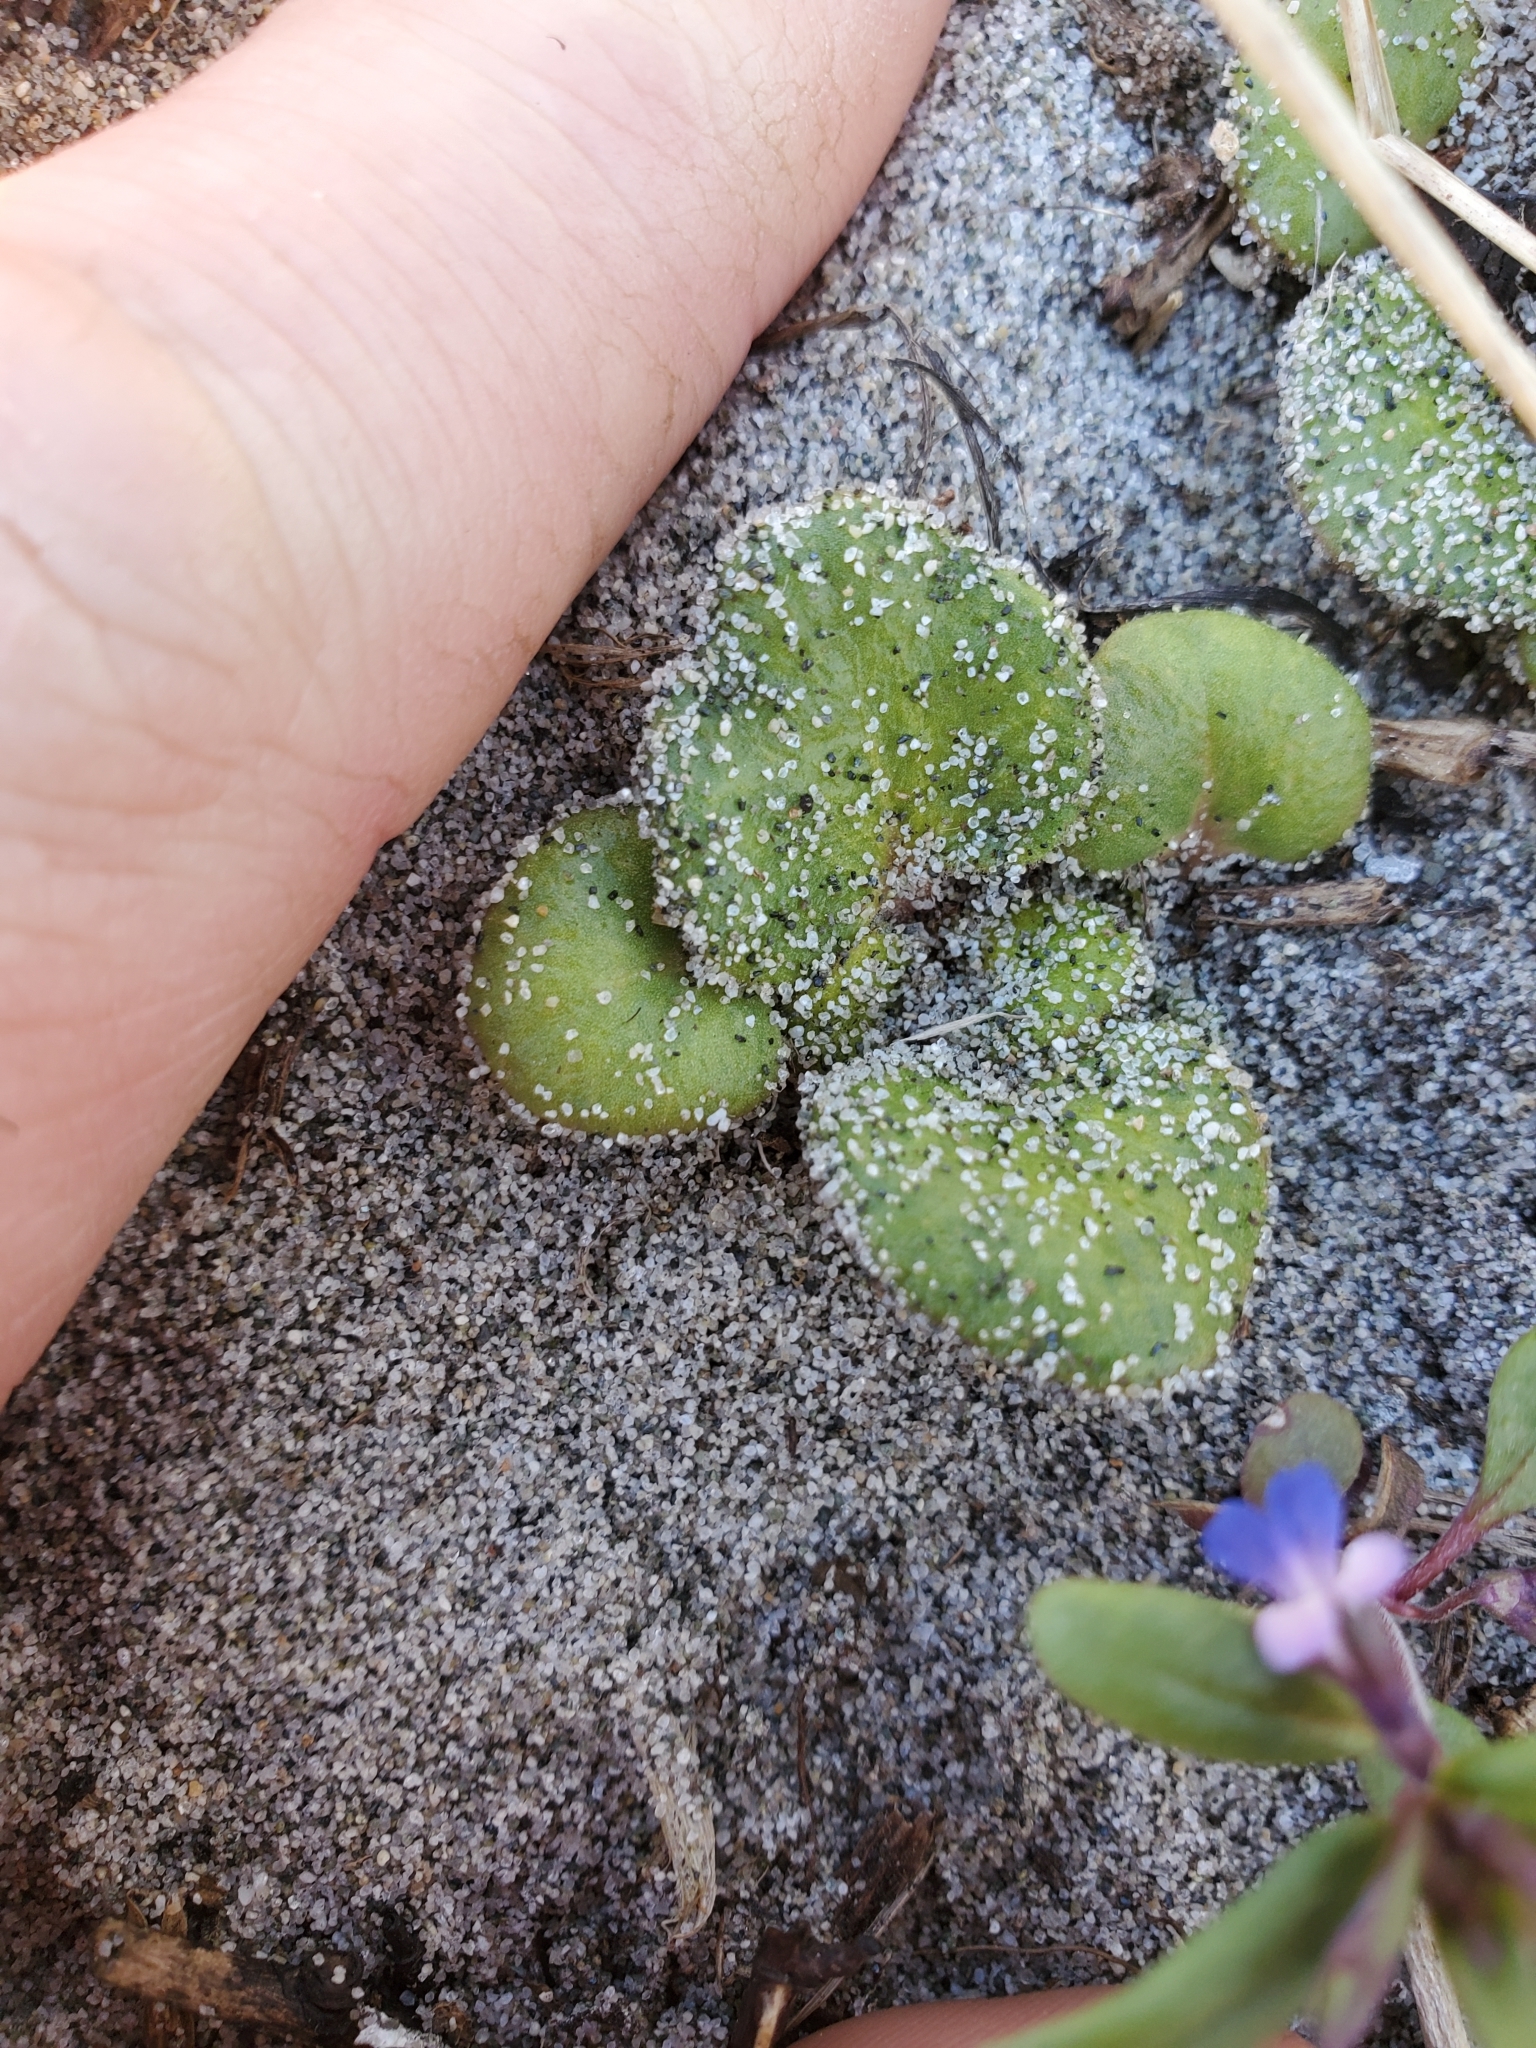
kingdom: Plantae
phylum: Tracheophyta
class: Magnoliopsida
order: Caryophyllales
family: Nyctaginaceae
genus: Abronia
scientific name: Abronia latifolia
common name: Yellow sand-verbena
